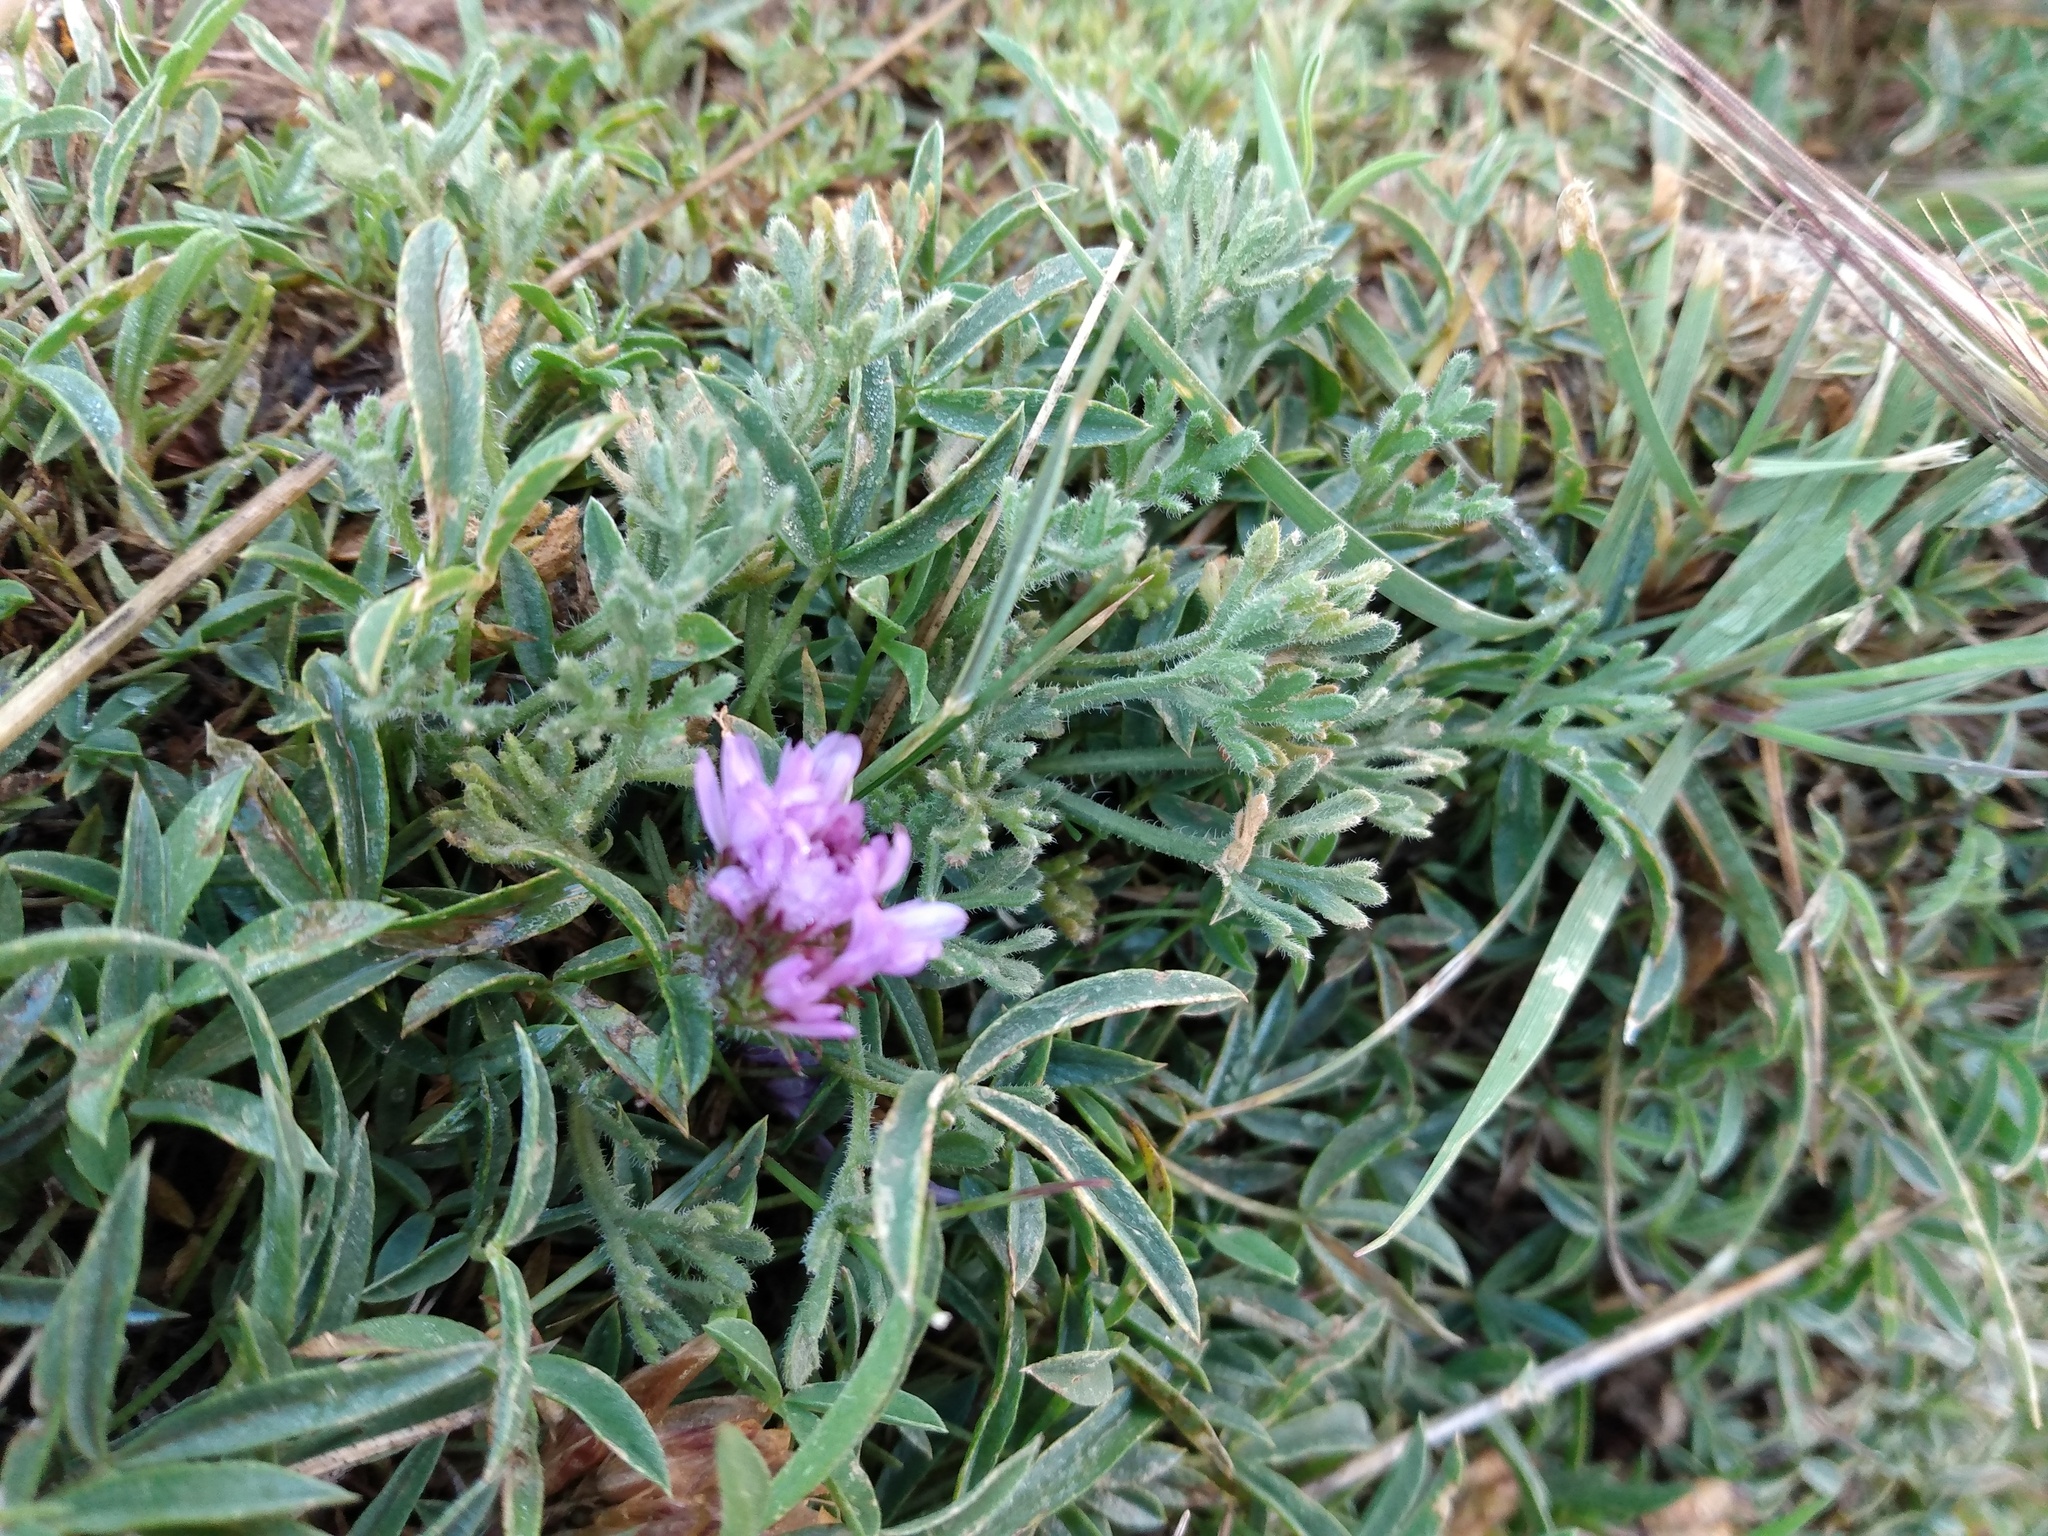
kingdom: Plantae
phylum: Tracheophyta
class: Magnoliopsida
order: Fabales
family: Fabaceae
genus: Trifolium
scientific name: Trifolium dasyphyllum
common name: Whip-root clover
